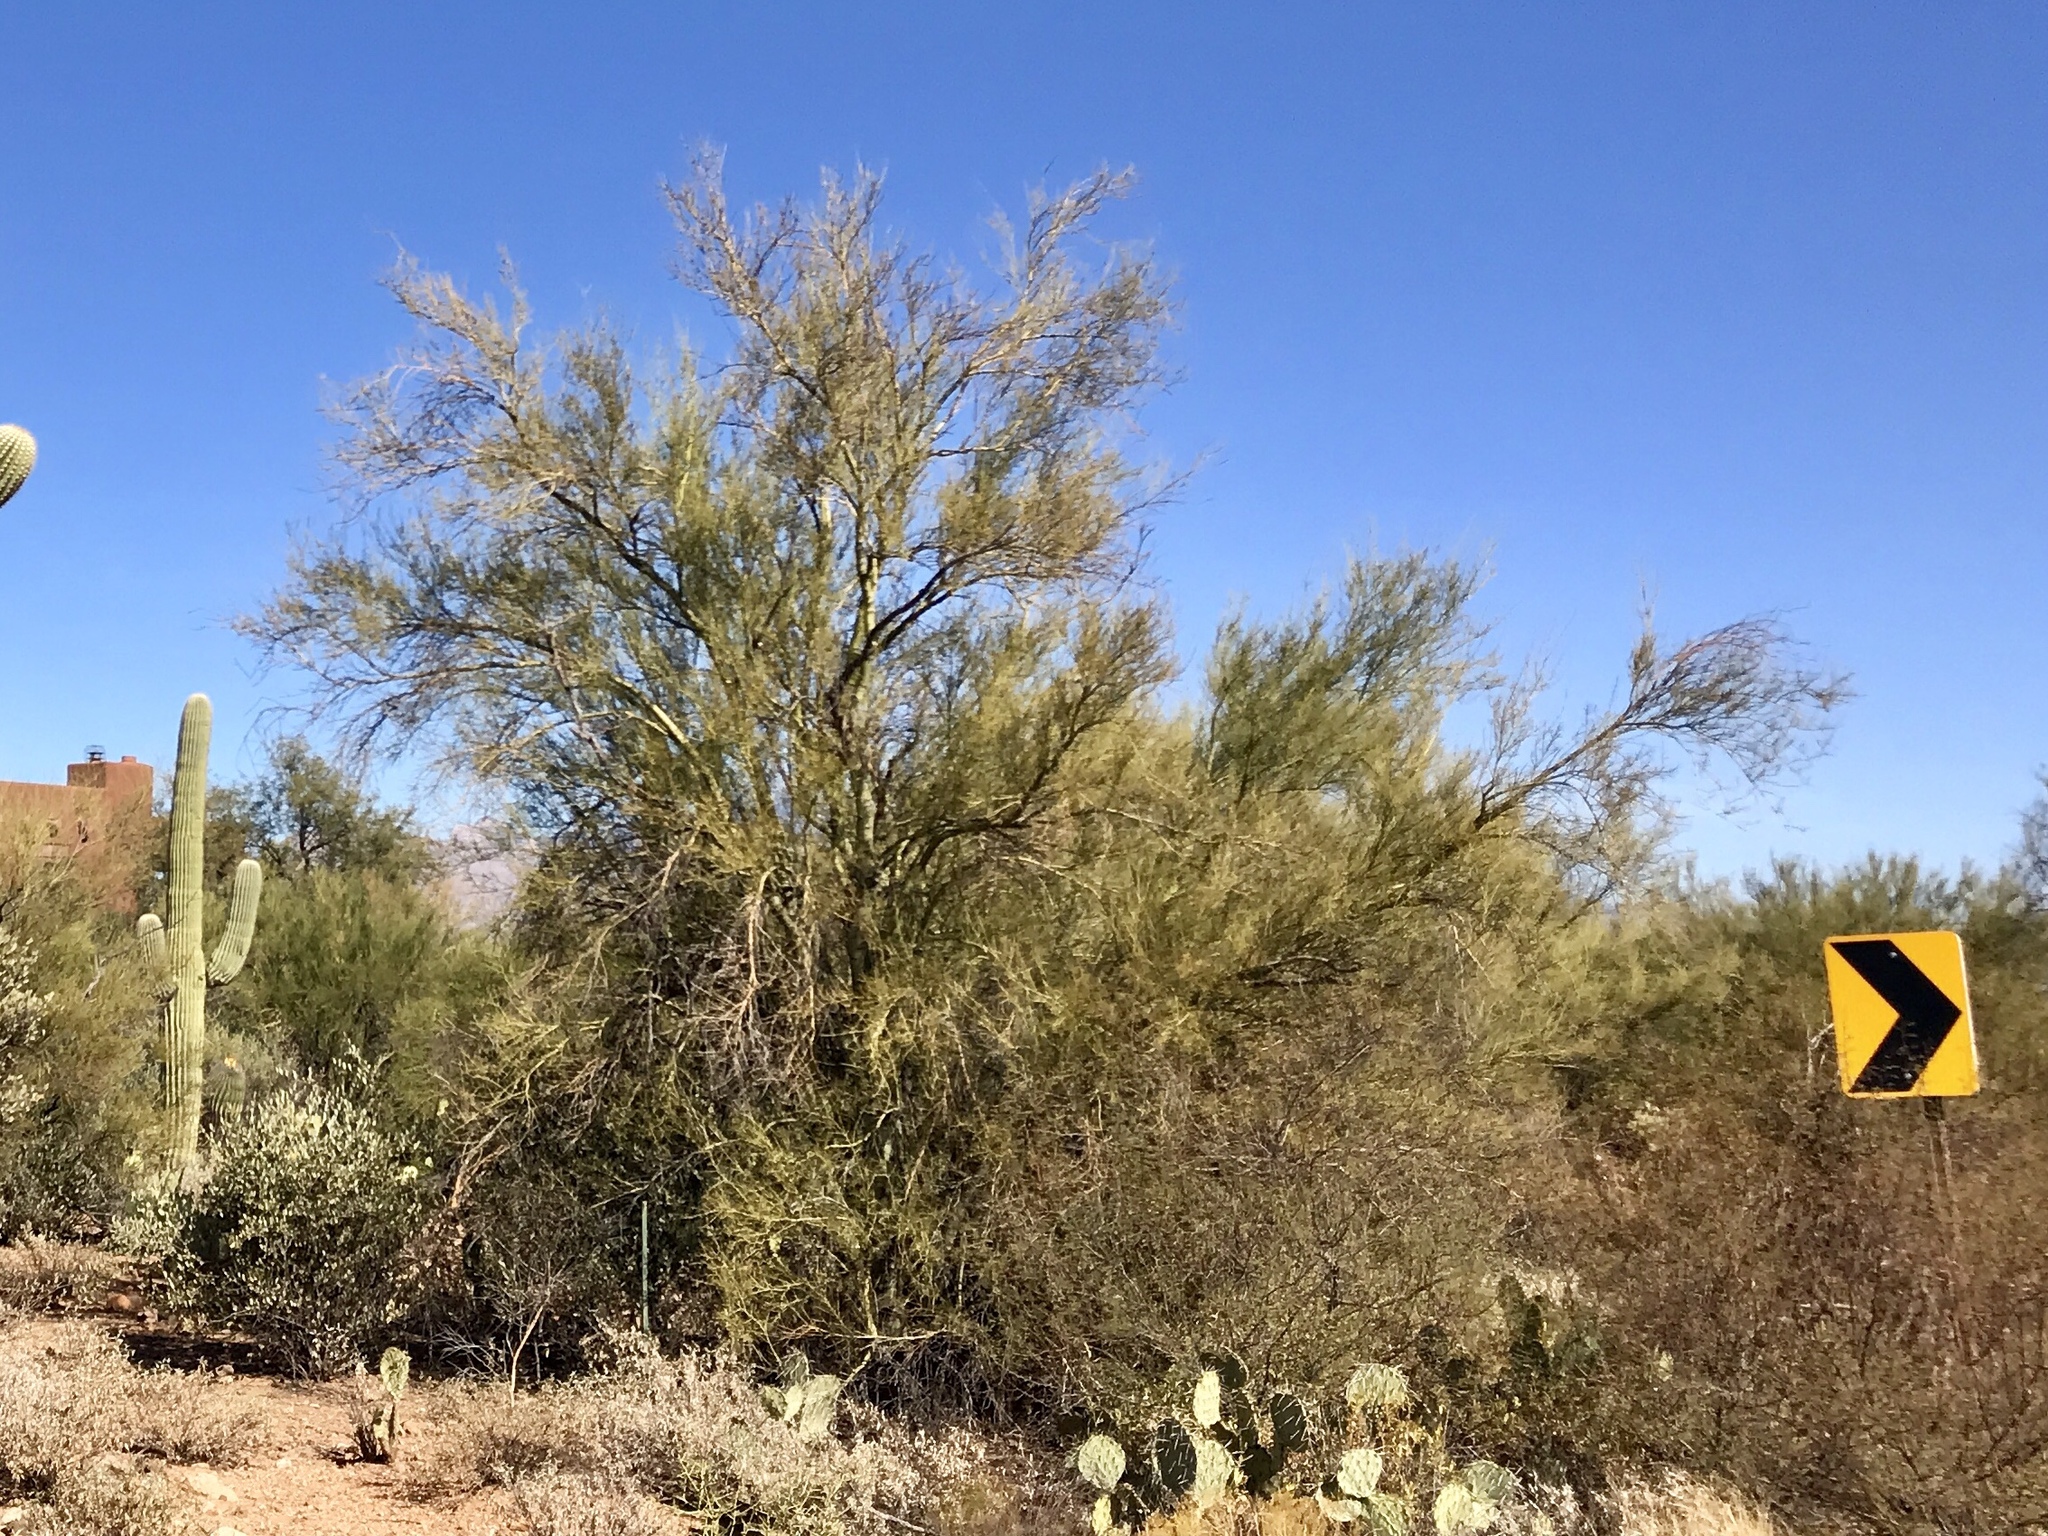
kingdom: Plantae
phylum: Tracheophyta
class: Magnoliopsida
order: Fabales
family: Fabaceae
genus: Parkinsonia
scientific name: Parkinsonia florida
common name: Blue paloverde
